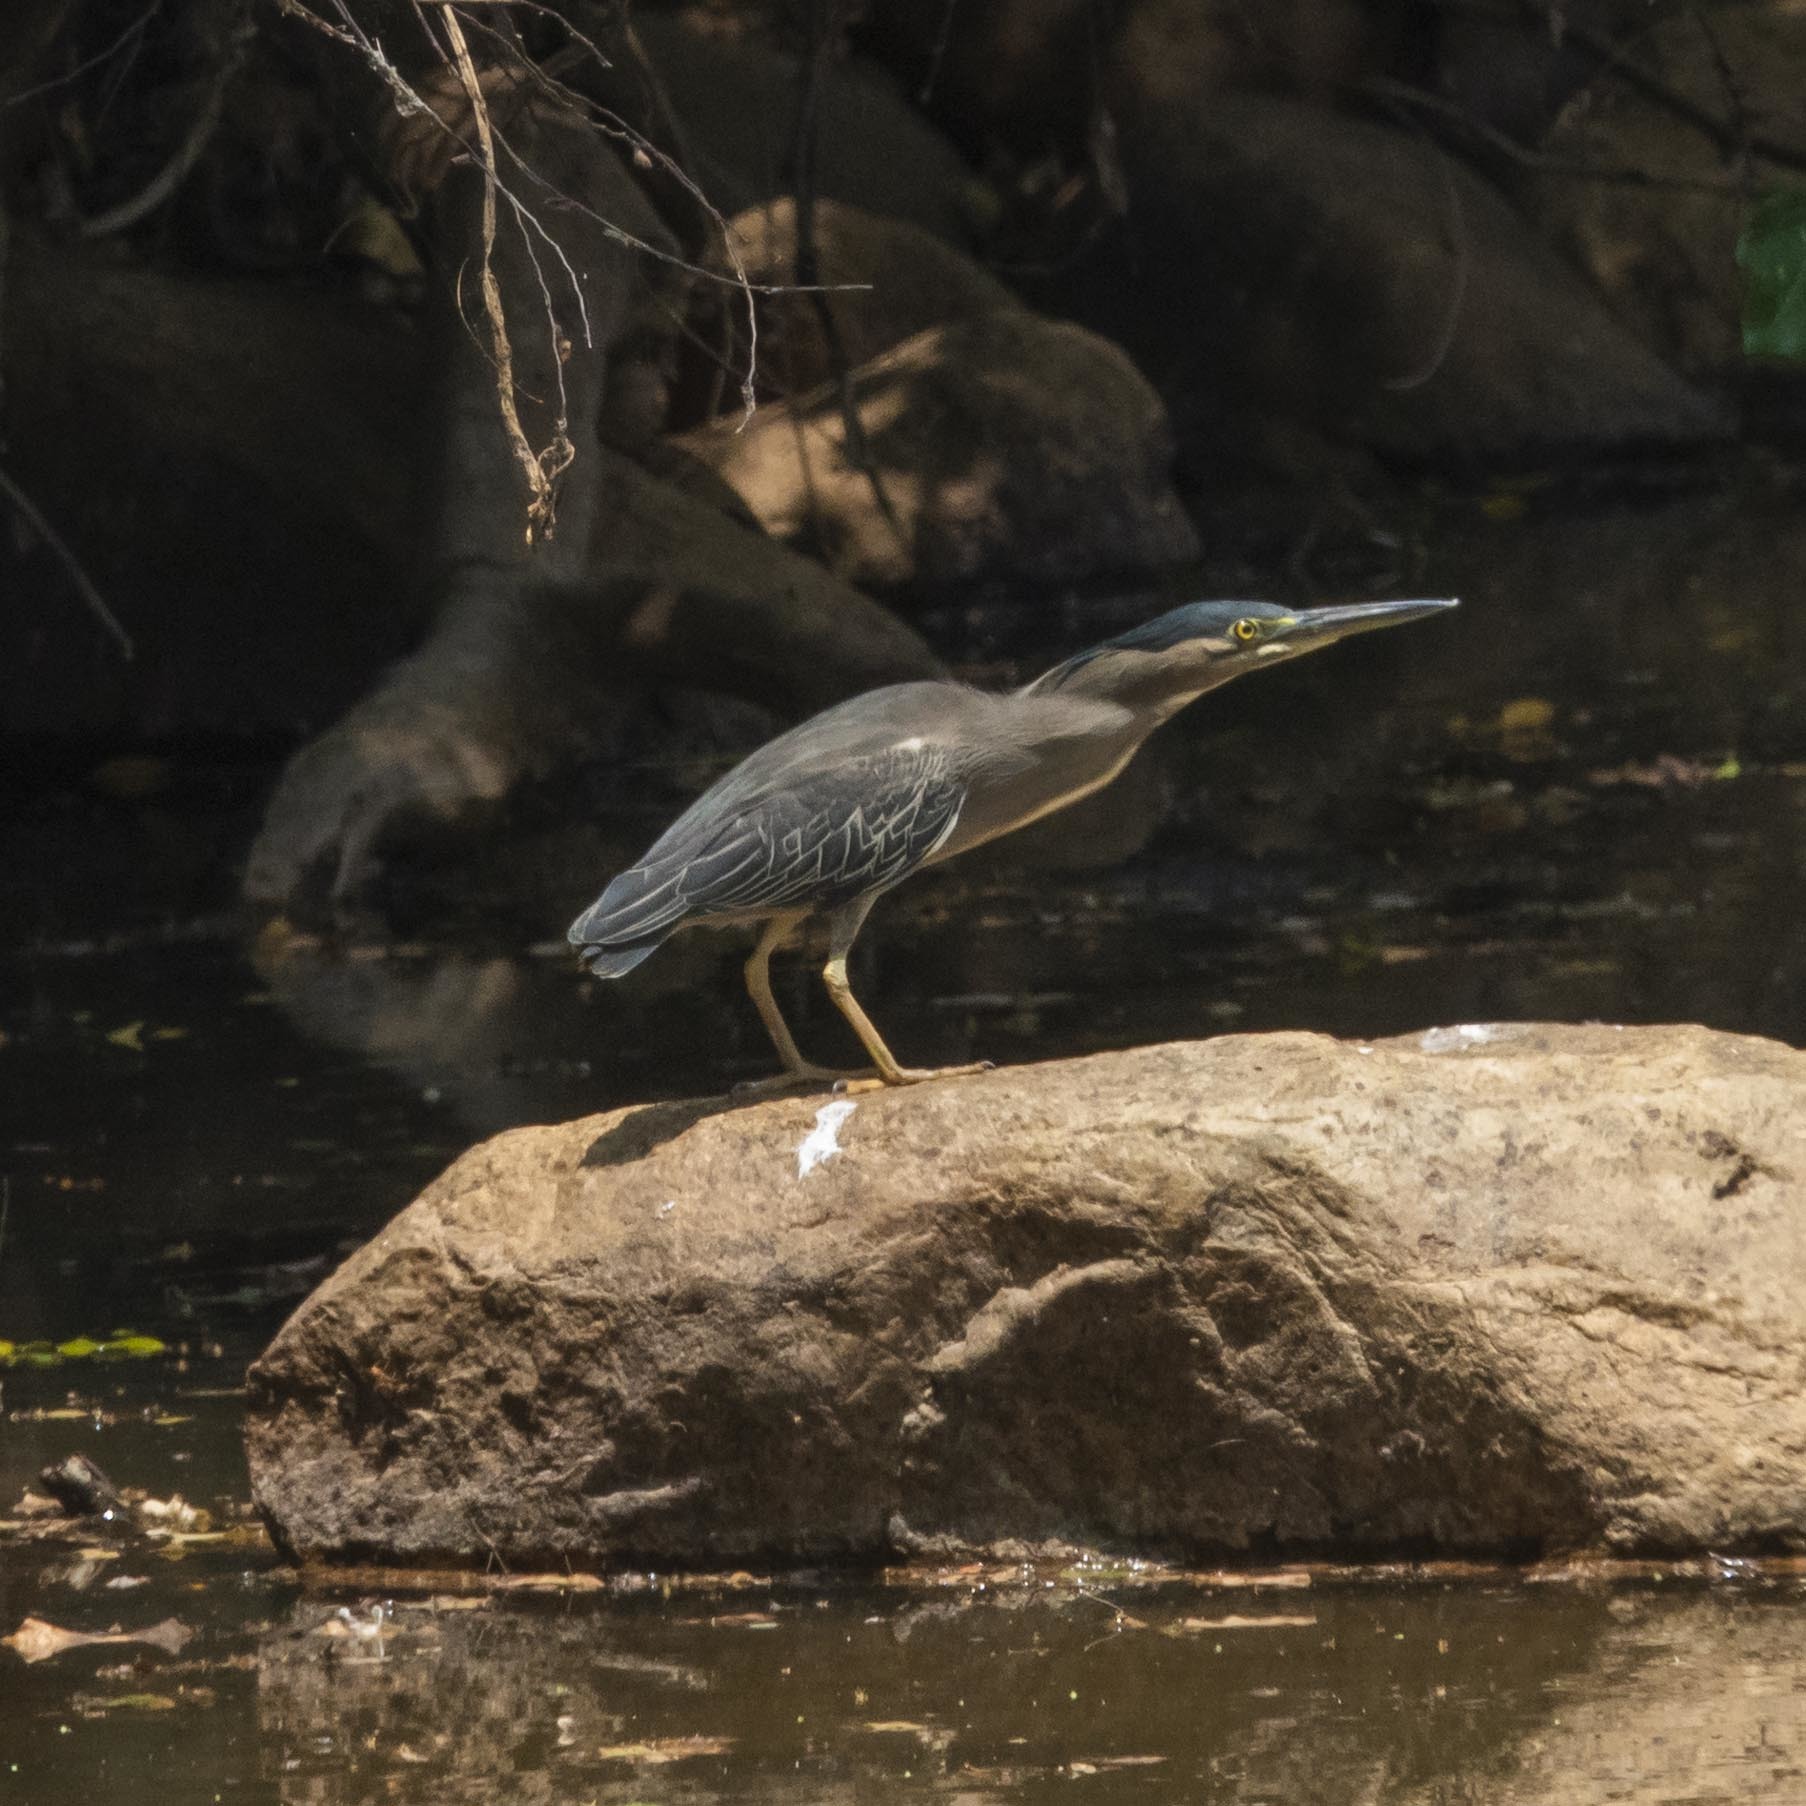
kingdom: Animalia
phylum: Chordata
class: Aves
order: Pelecaniformes
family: Ardeidae
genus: Butorides
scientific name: Butorides striata
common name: Striated heron
